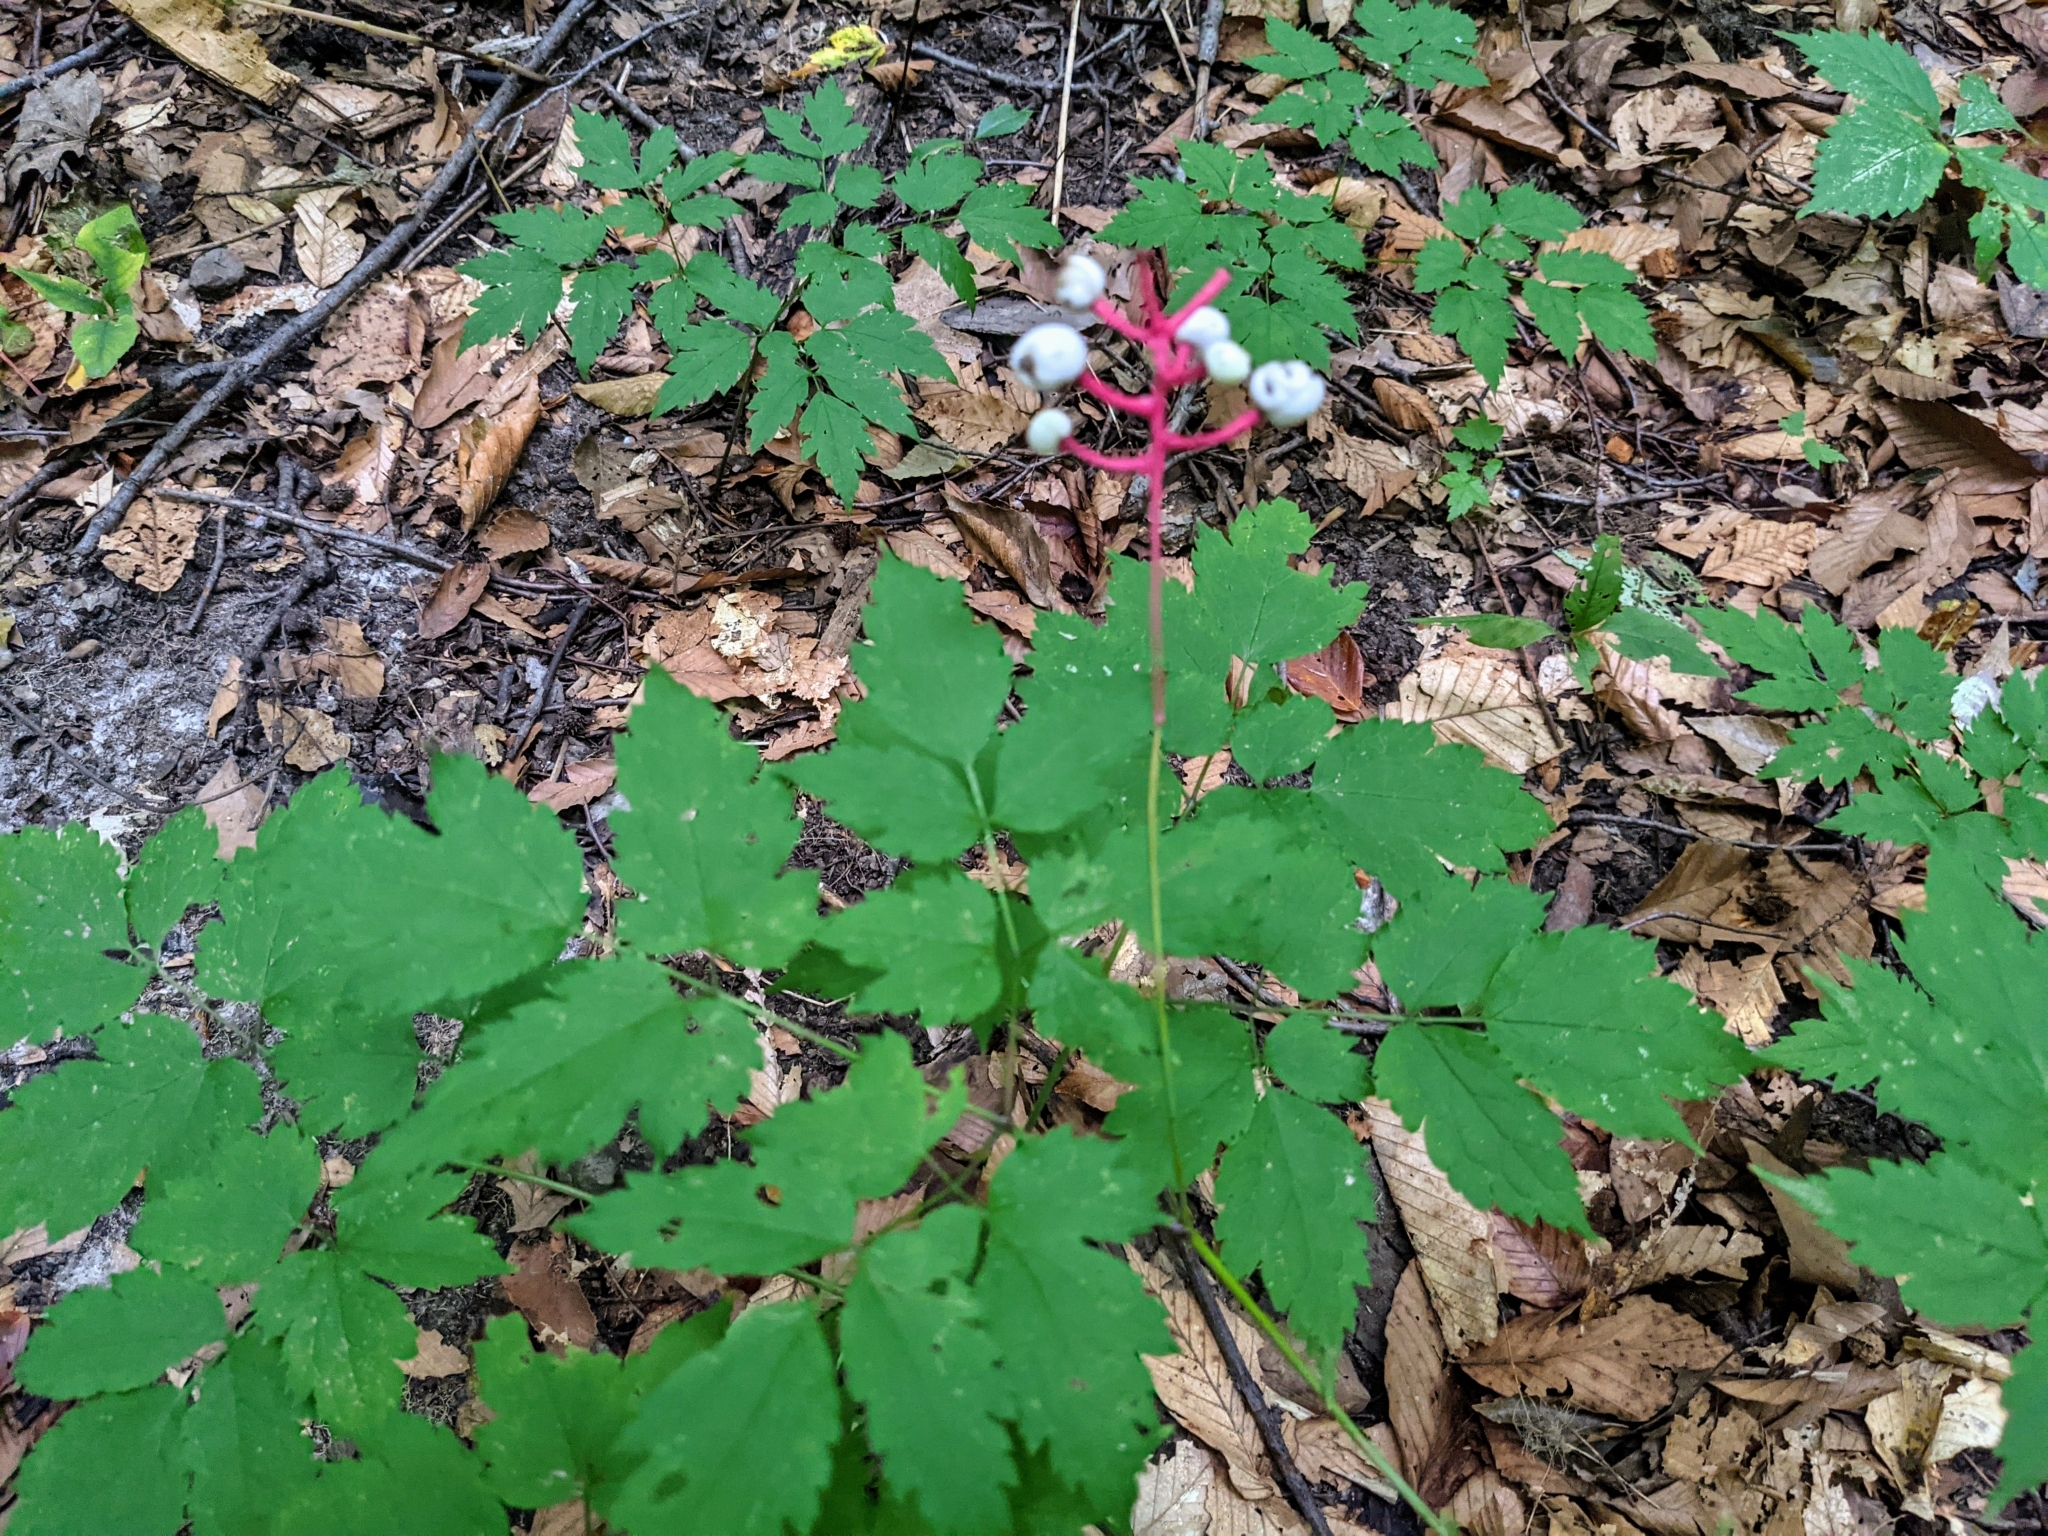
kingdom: Plantae
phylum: Tracheophyta
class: Magnoliopsida
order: Ranunculales
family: Ranunculaceae
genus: Actaea
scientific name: Actaea pachypoda
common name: Doll's-eyes
